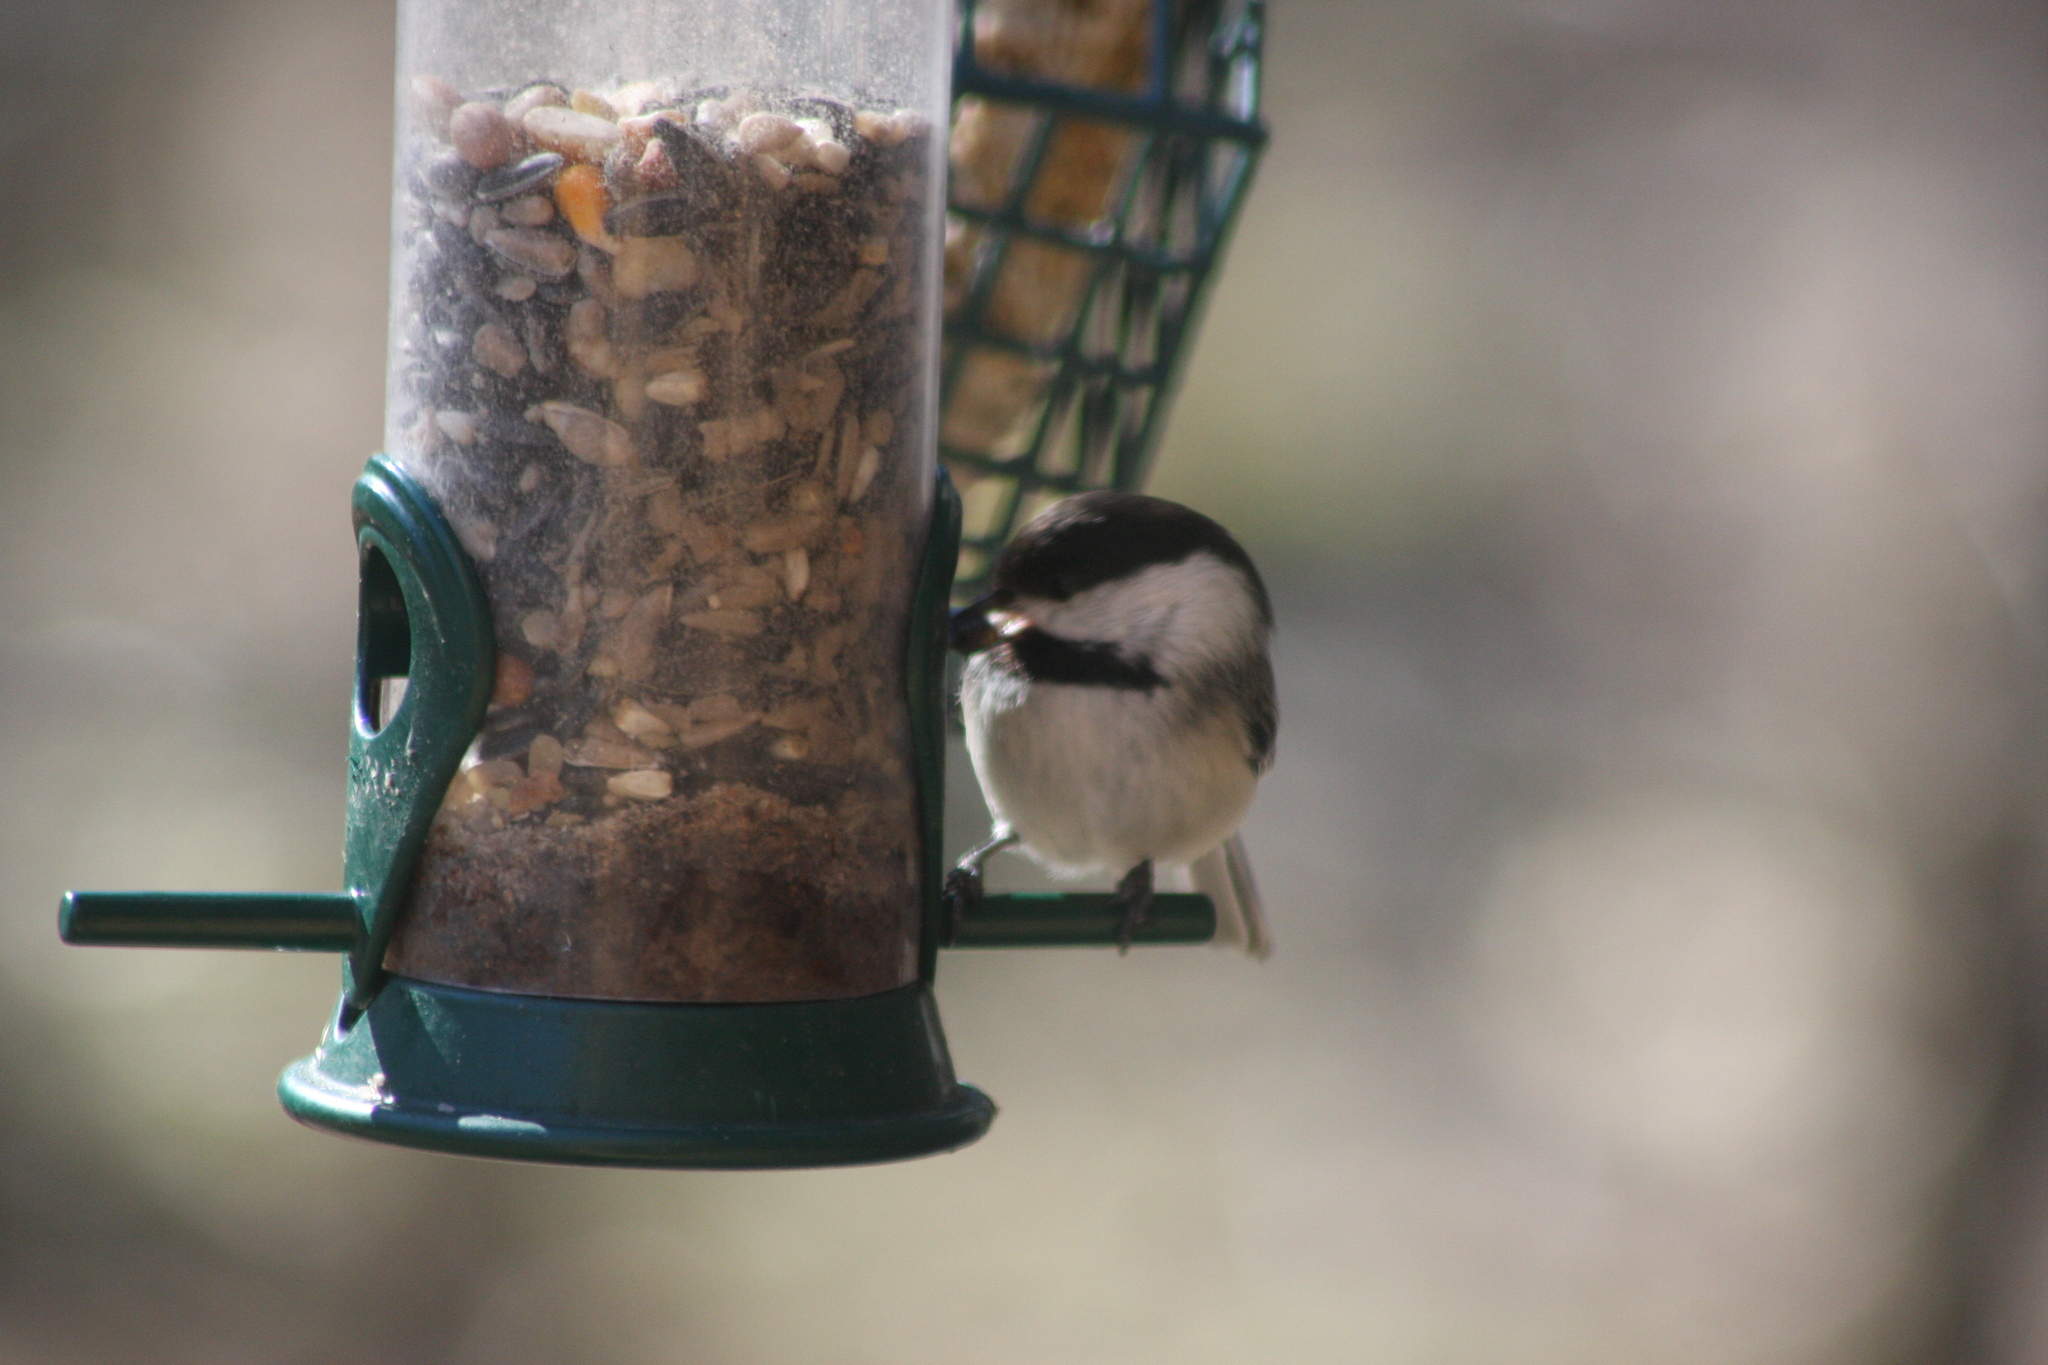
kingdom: Animalia
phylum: Chordata
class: Aves
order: Passeriformes
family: Paridae
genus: Poecile
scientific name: Poecile atricapillus
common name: Black-capped chickadee
